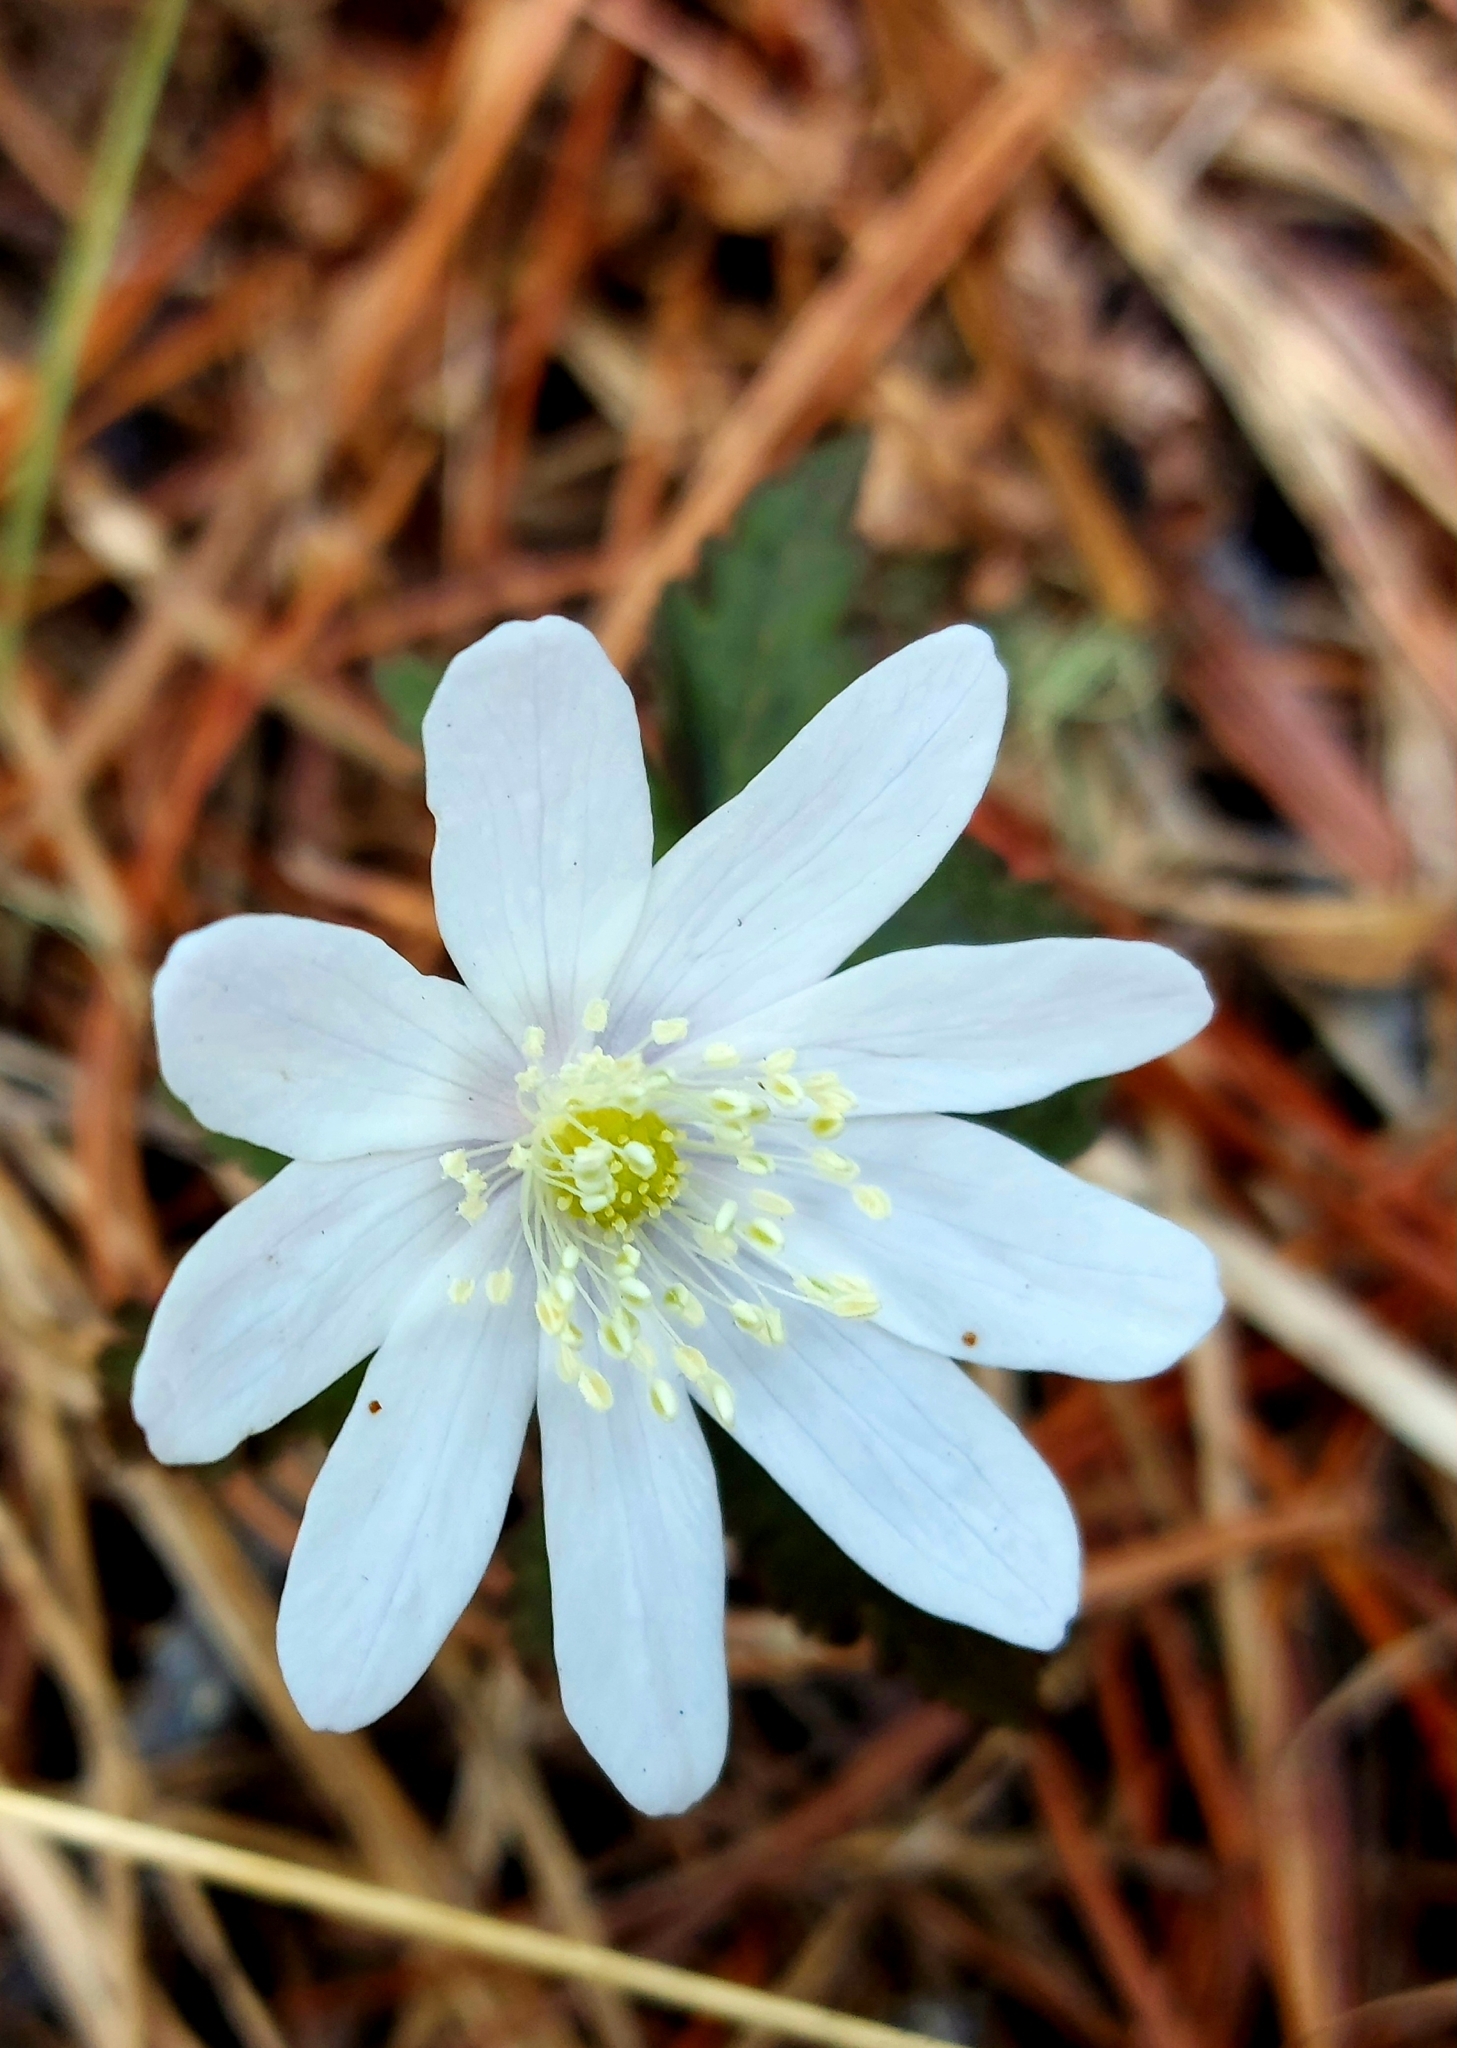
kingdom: Plantae
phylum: Tracheophyta
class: Magnoliopsida
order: Ranunculales
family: Ranunculaceae
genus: Anemone
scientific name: Anemone altaica
